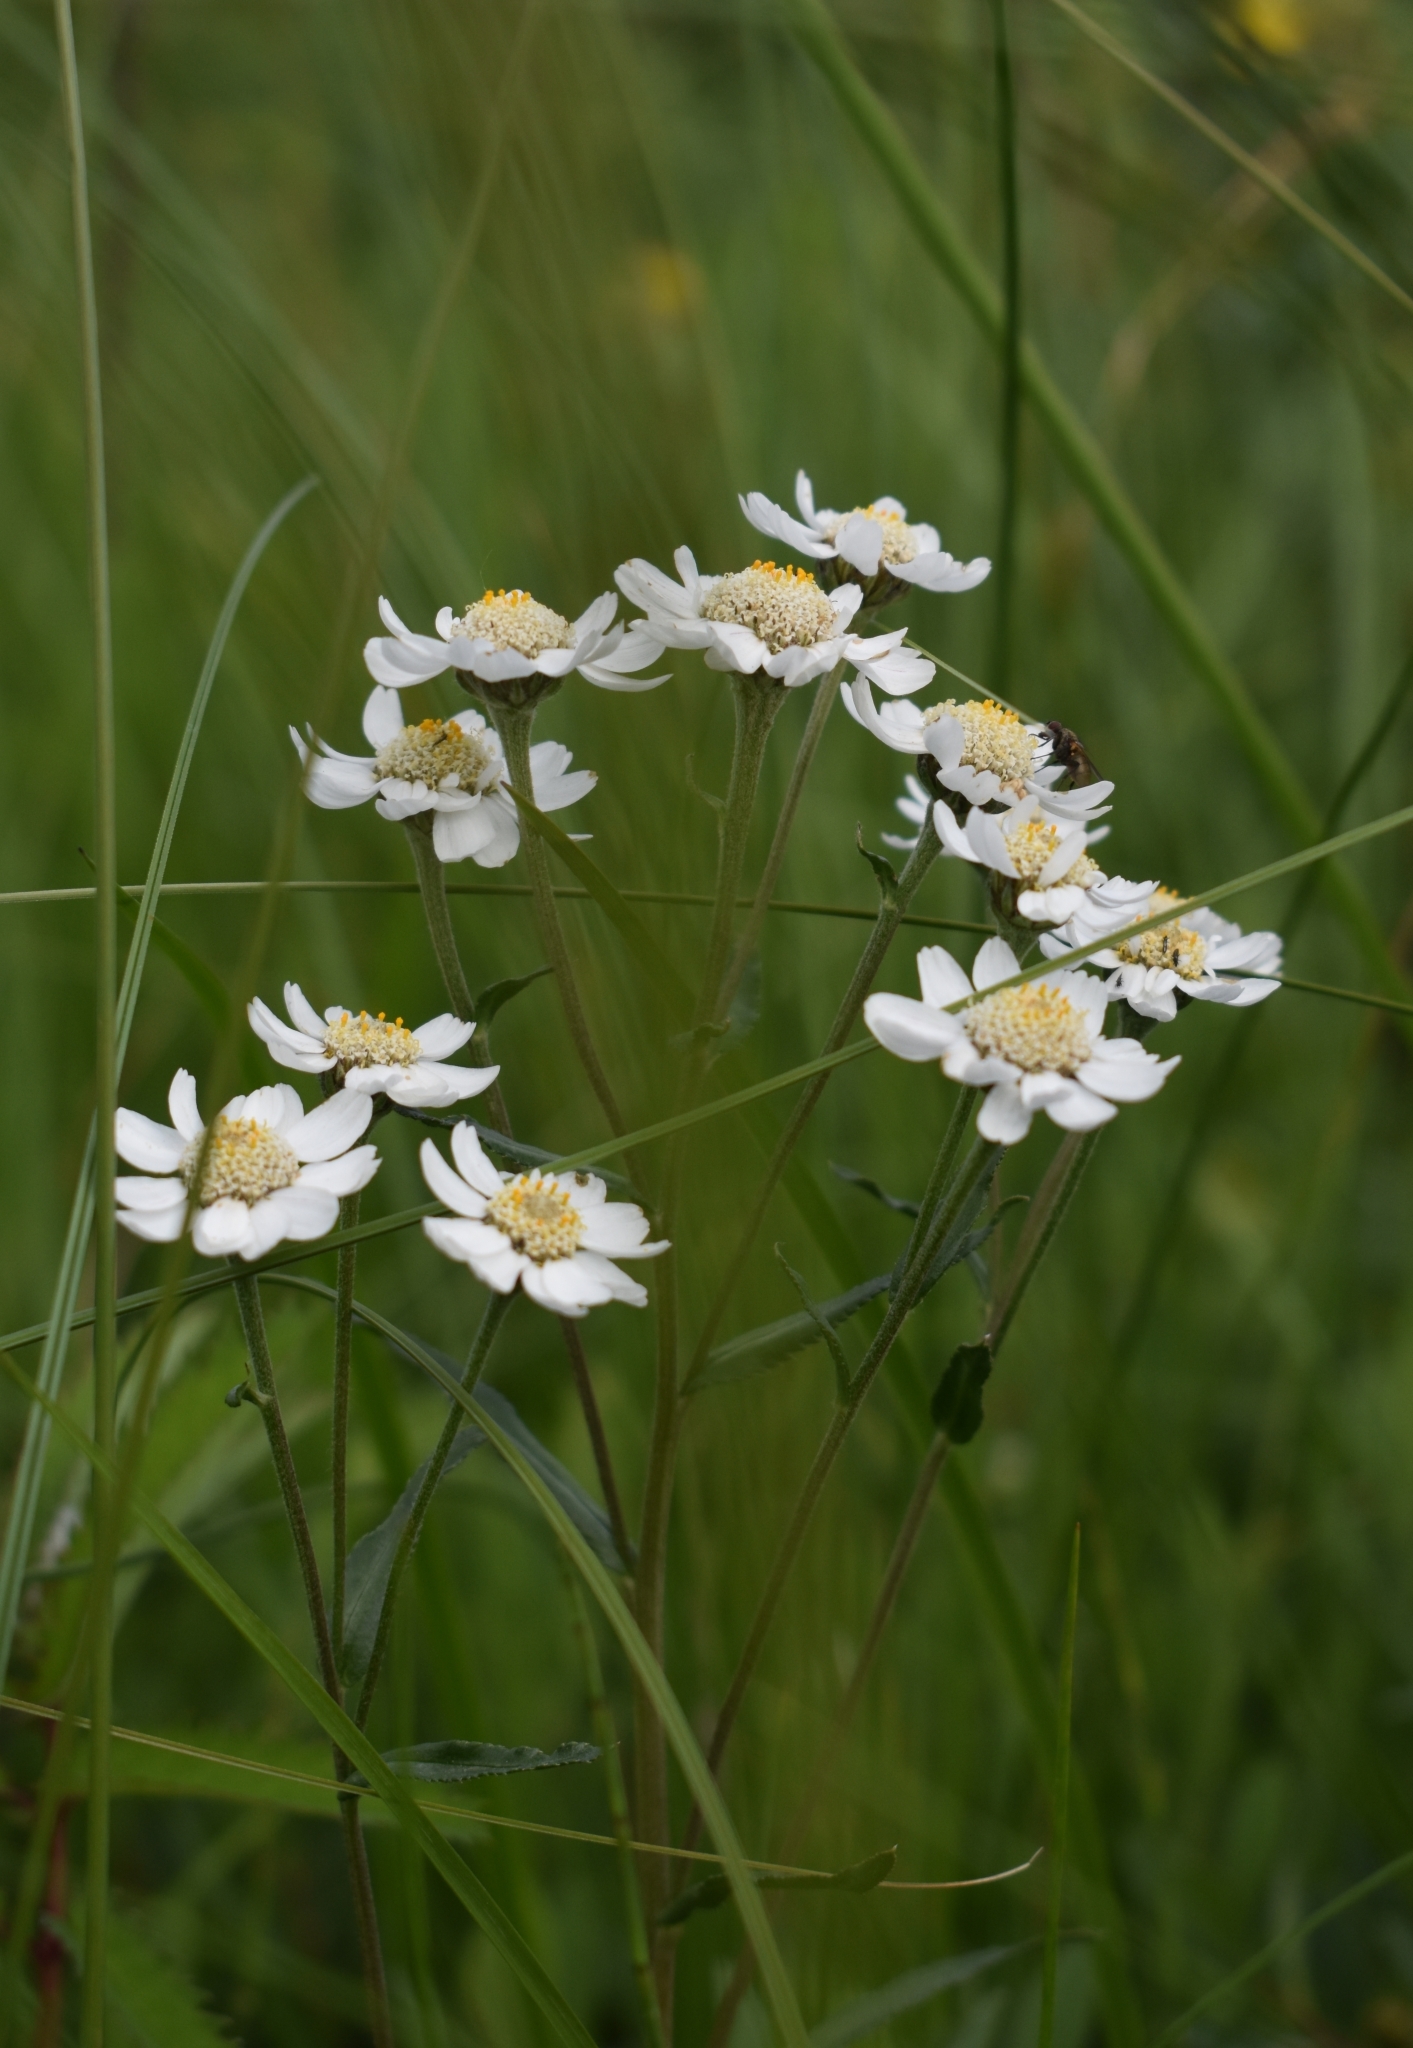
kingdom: Plantae
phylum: Tracheophyta
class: Magnoliopsida
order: Asterales
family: Asteraceae
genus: Achillea
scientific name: Achillea ptarmica
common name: Sneezeweed
